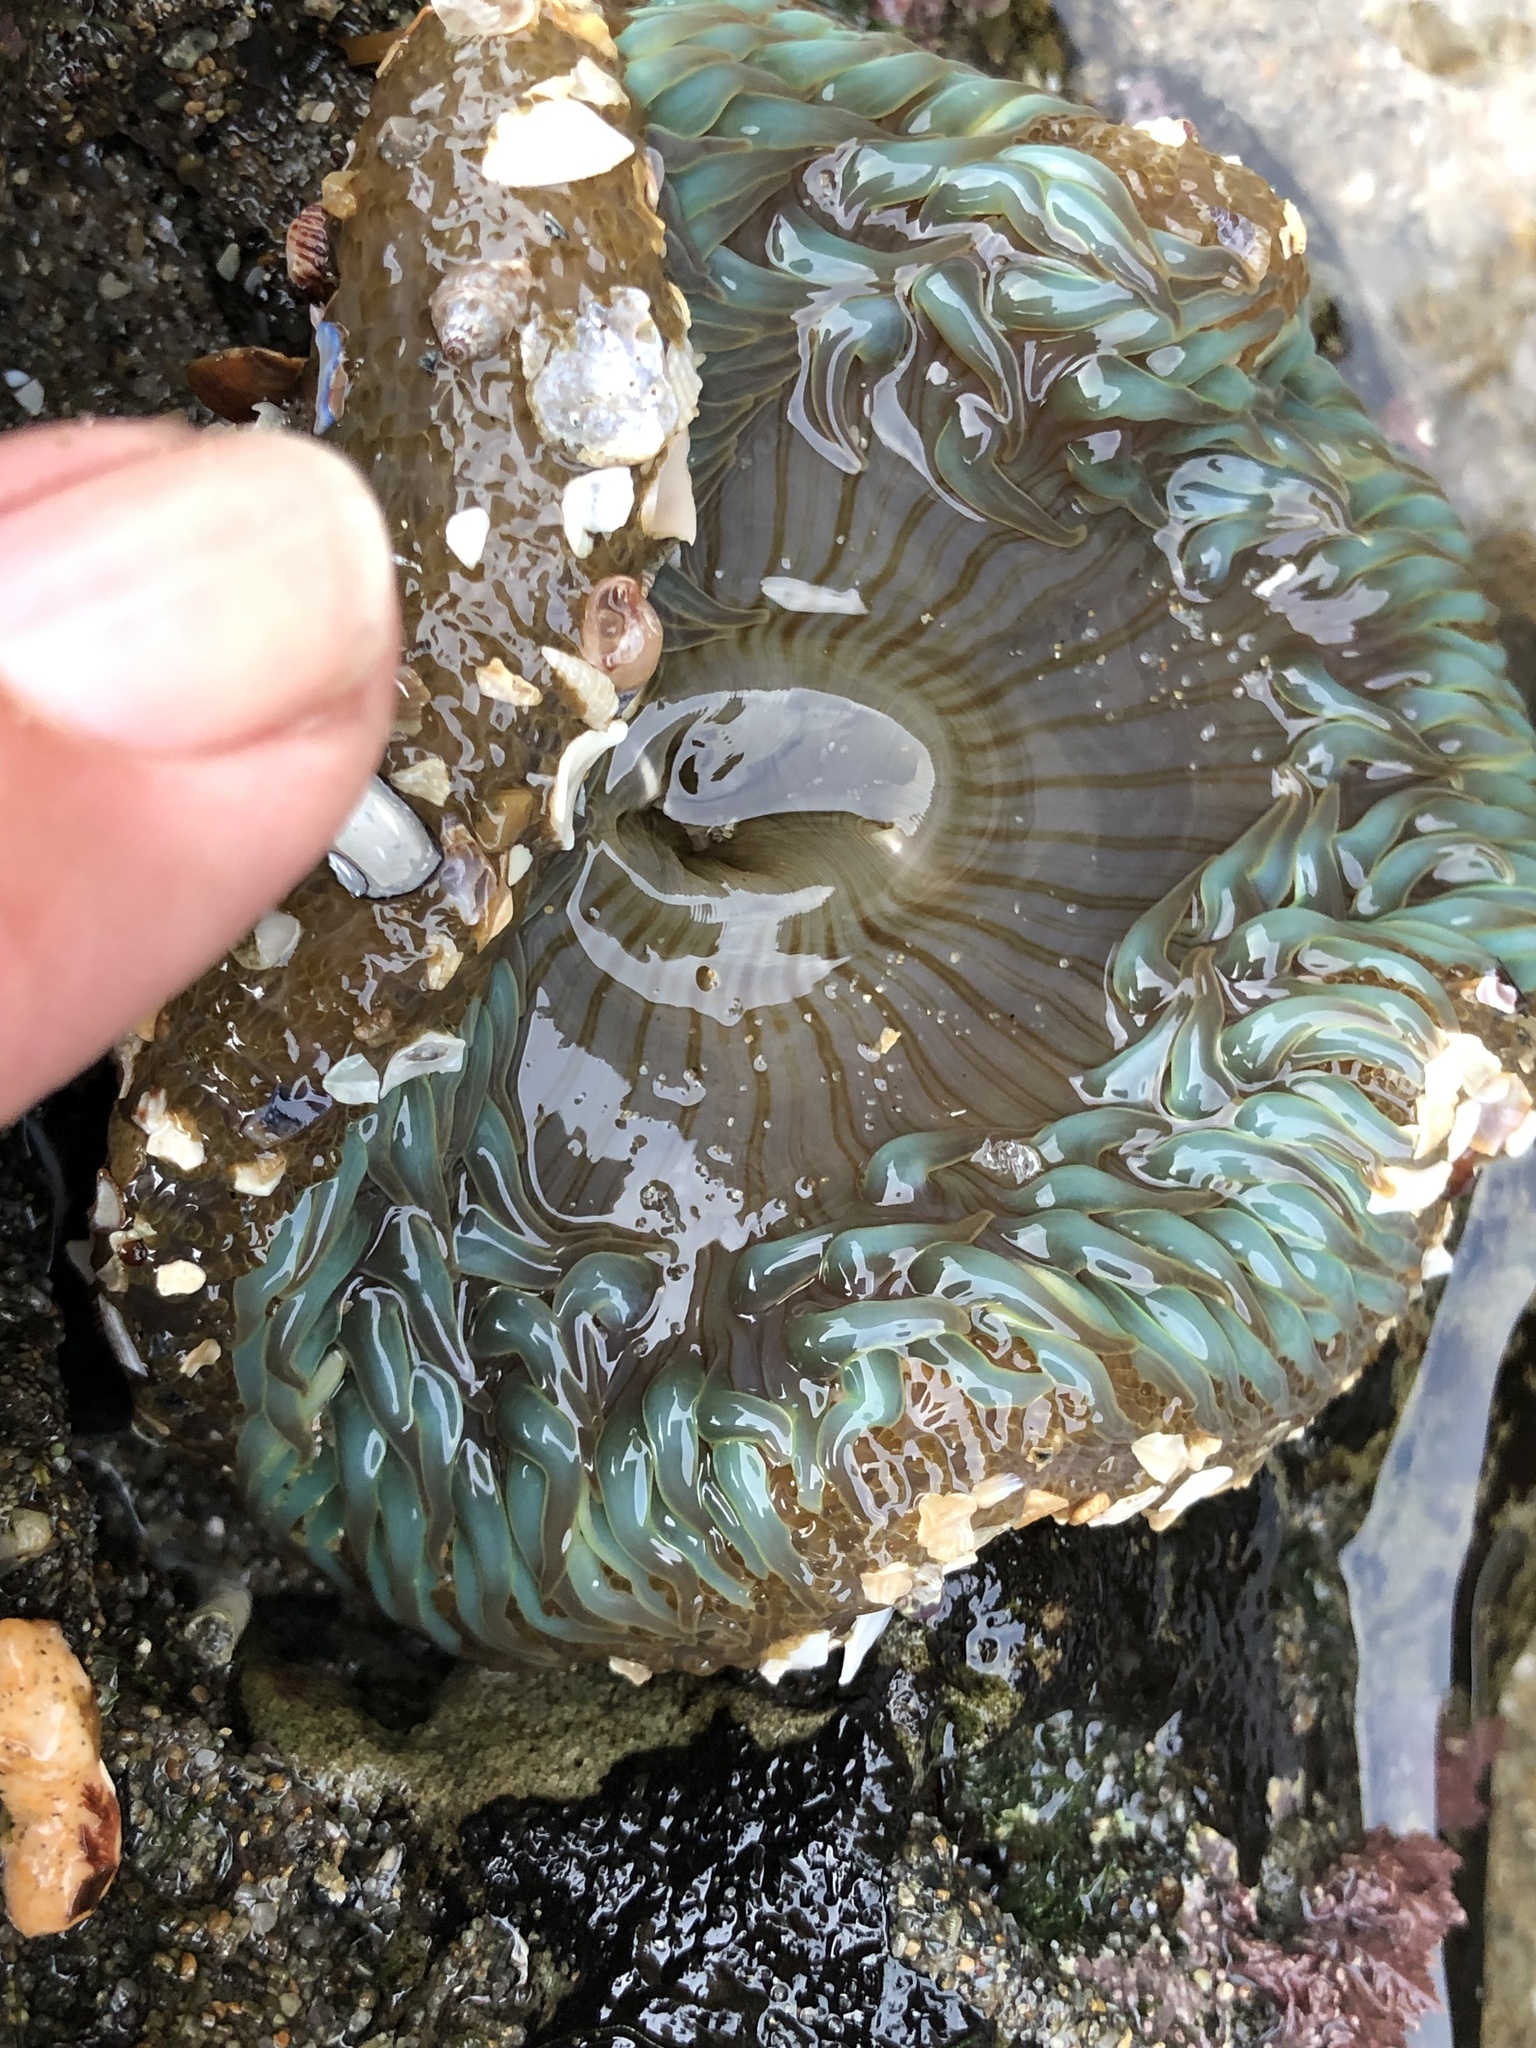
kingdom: Animalia
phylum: Cnidaria
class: Anthozoa
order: Actiniaria
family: Actiniidae
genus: Anthopleura
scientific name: Anthopleura sola
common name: Sun anemone
